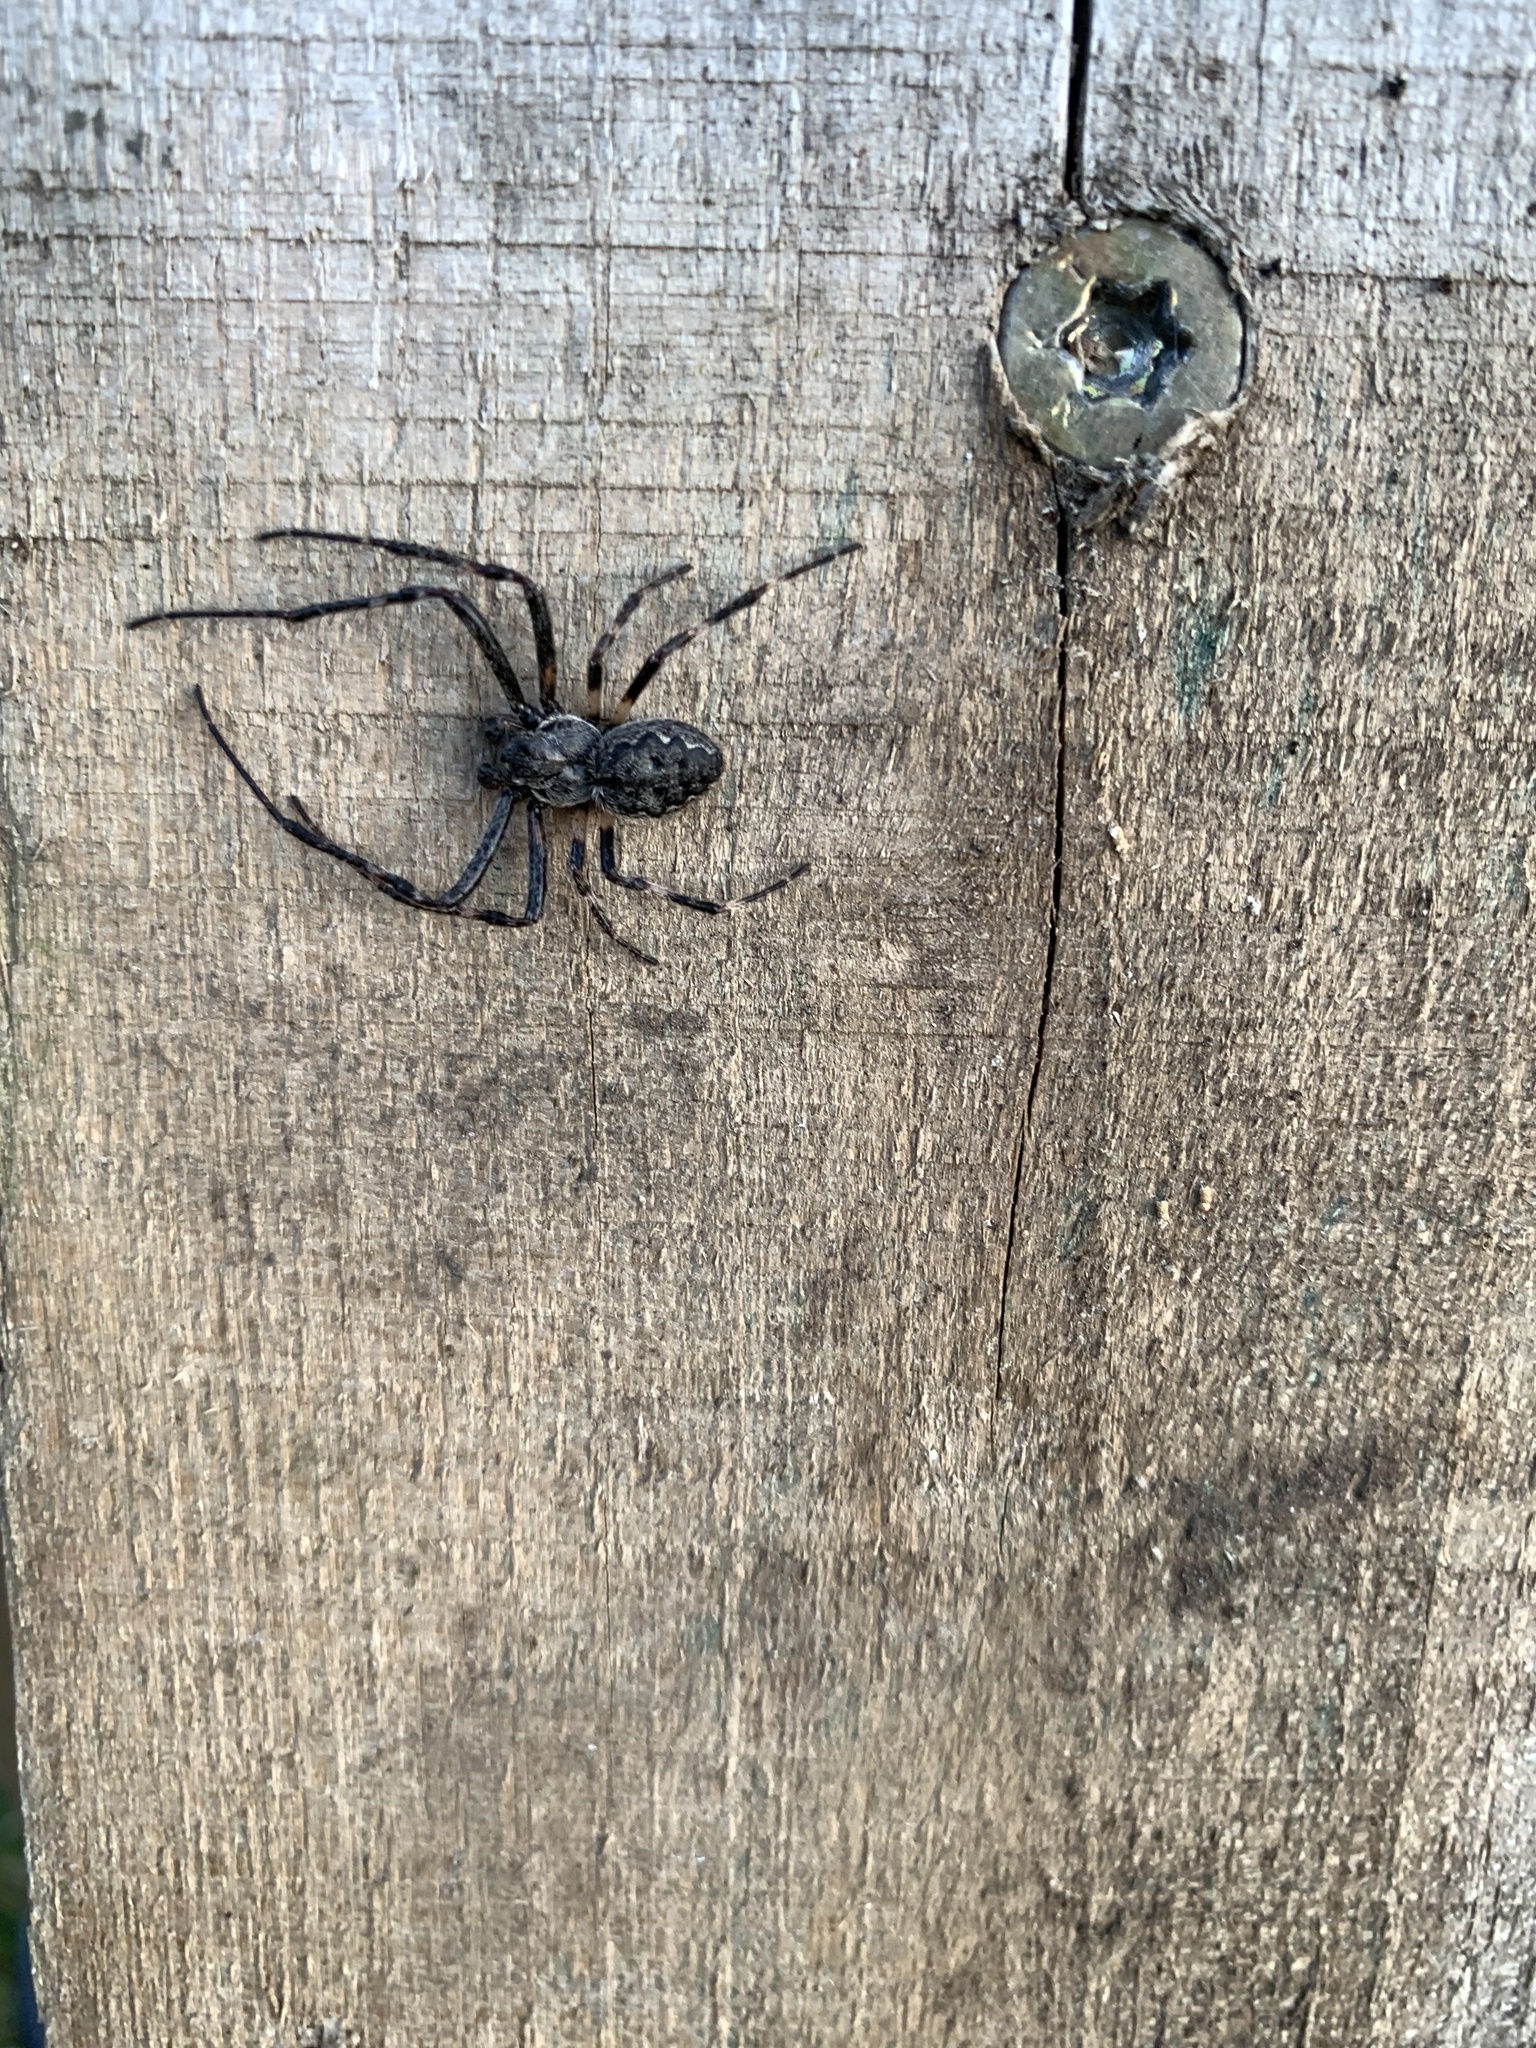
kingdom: Animalia
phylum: Arthropoda
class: Arachnida
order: Araneae
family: Araneidae
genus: Nuctenea
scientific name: Nuctenea umbratica
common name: Toad spider
